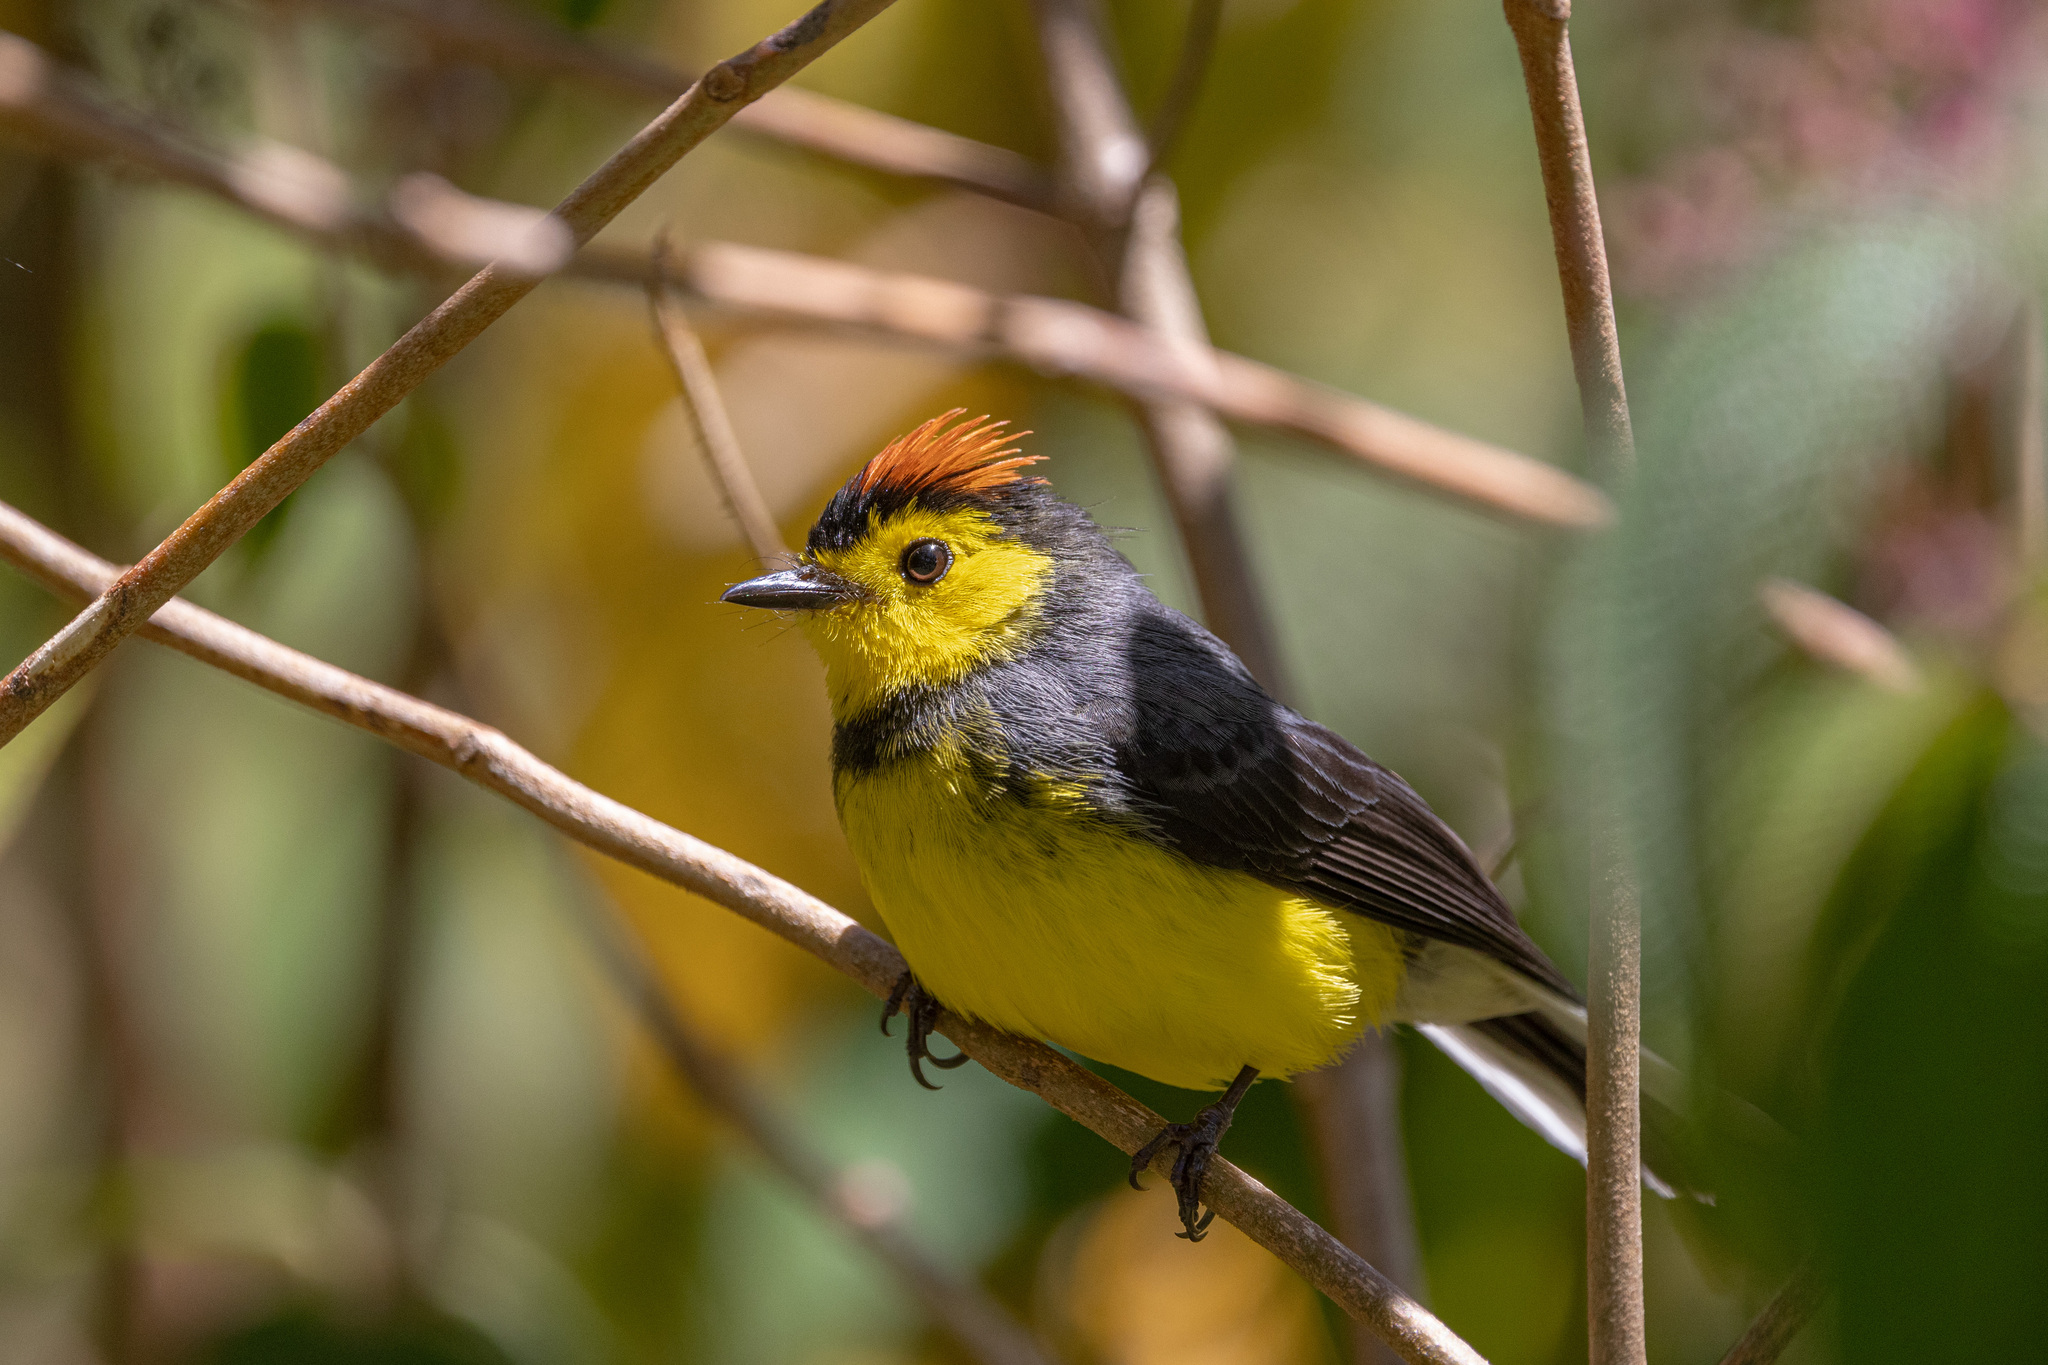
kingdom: Animalia
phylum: Chordata
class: Aves
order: Passeriformes
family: Parulidae
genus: Myioborus
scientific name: Myioborus torquatus
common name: Collared whitestart
